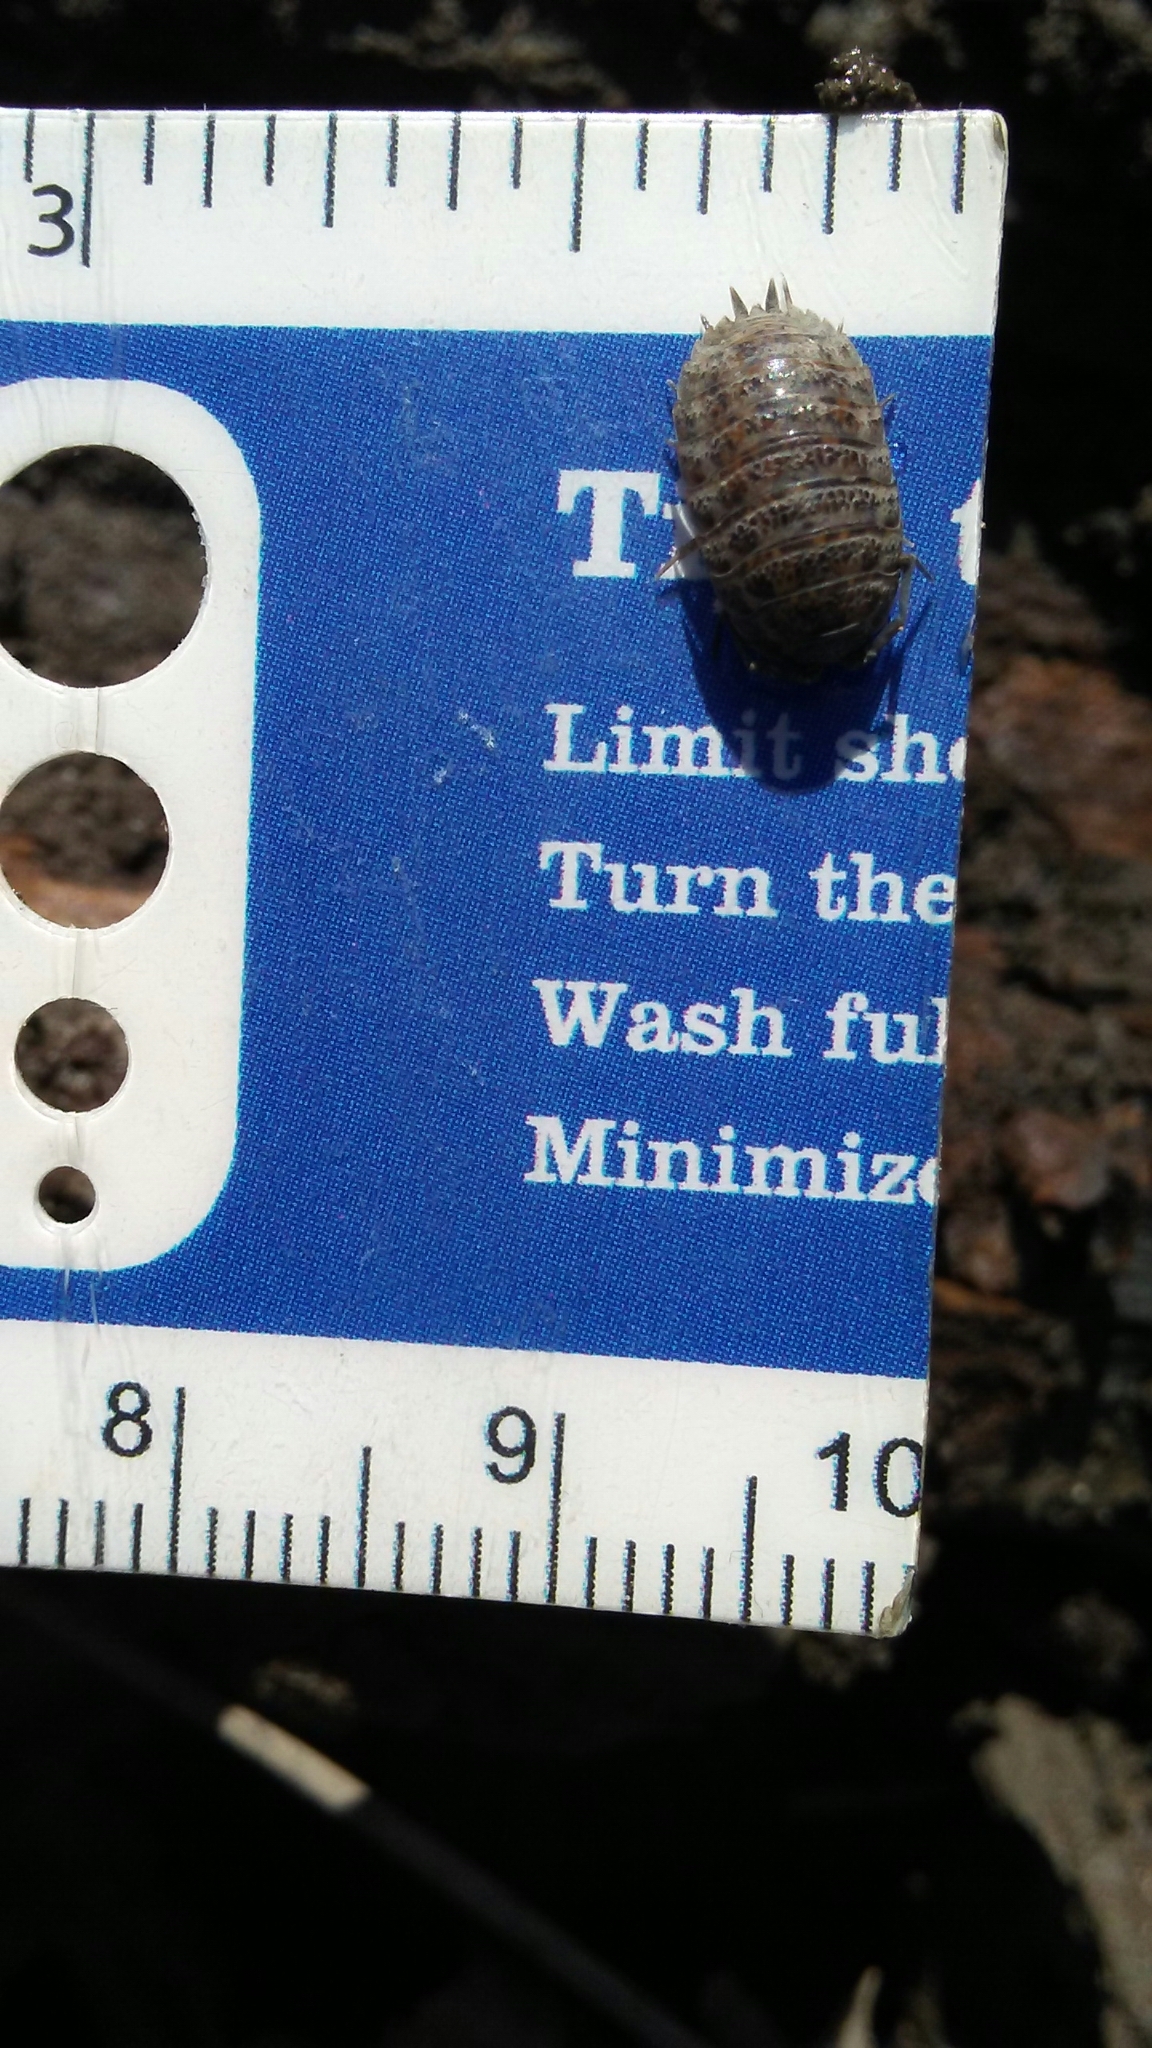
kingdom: Animalia
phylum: Arthropoda
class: Malacostraca
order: Isopoda
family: Trachelipodidae
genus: Trachelipus
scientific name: Trachelipus rathkii
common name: Isopod
